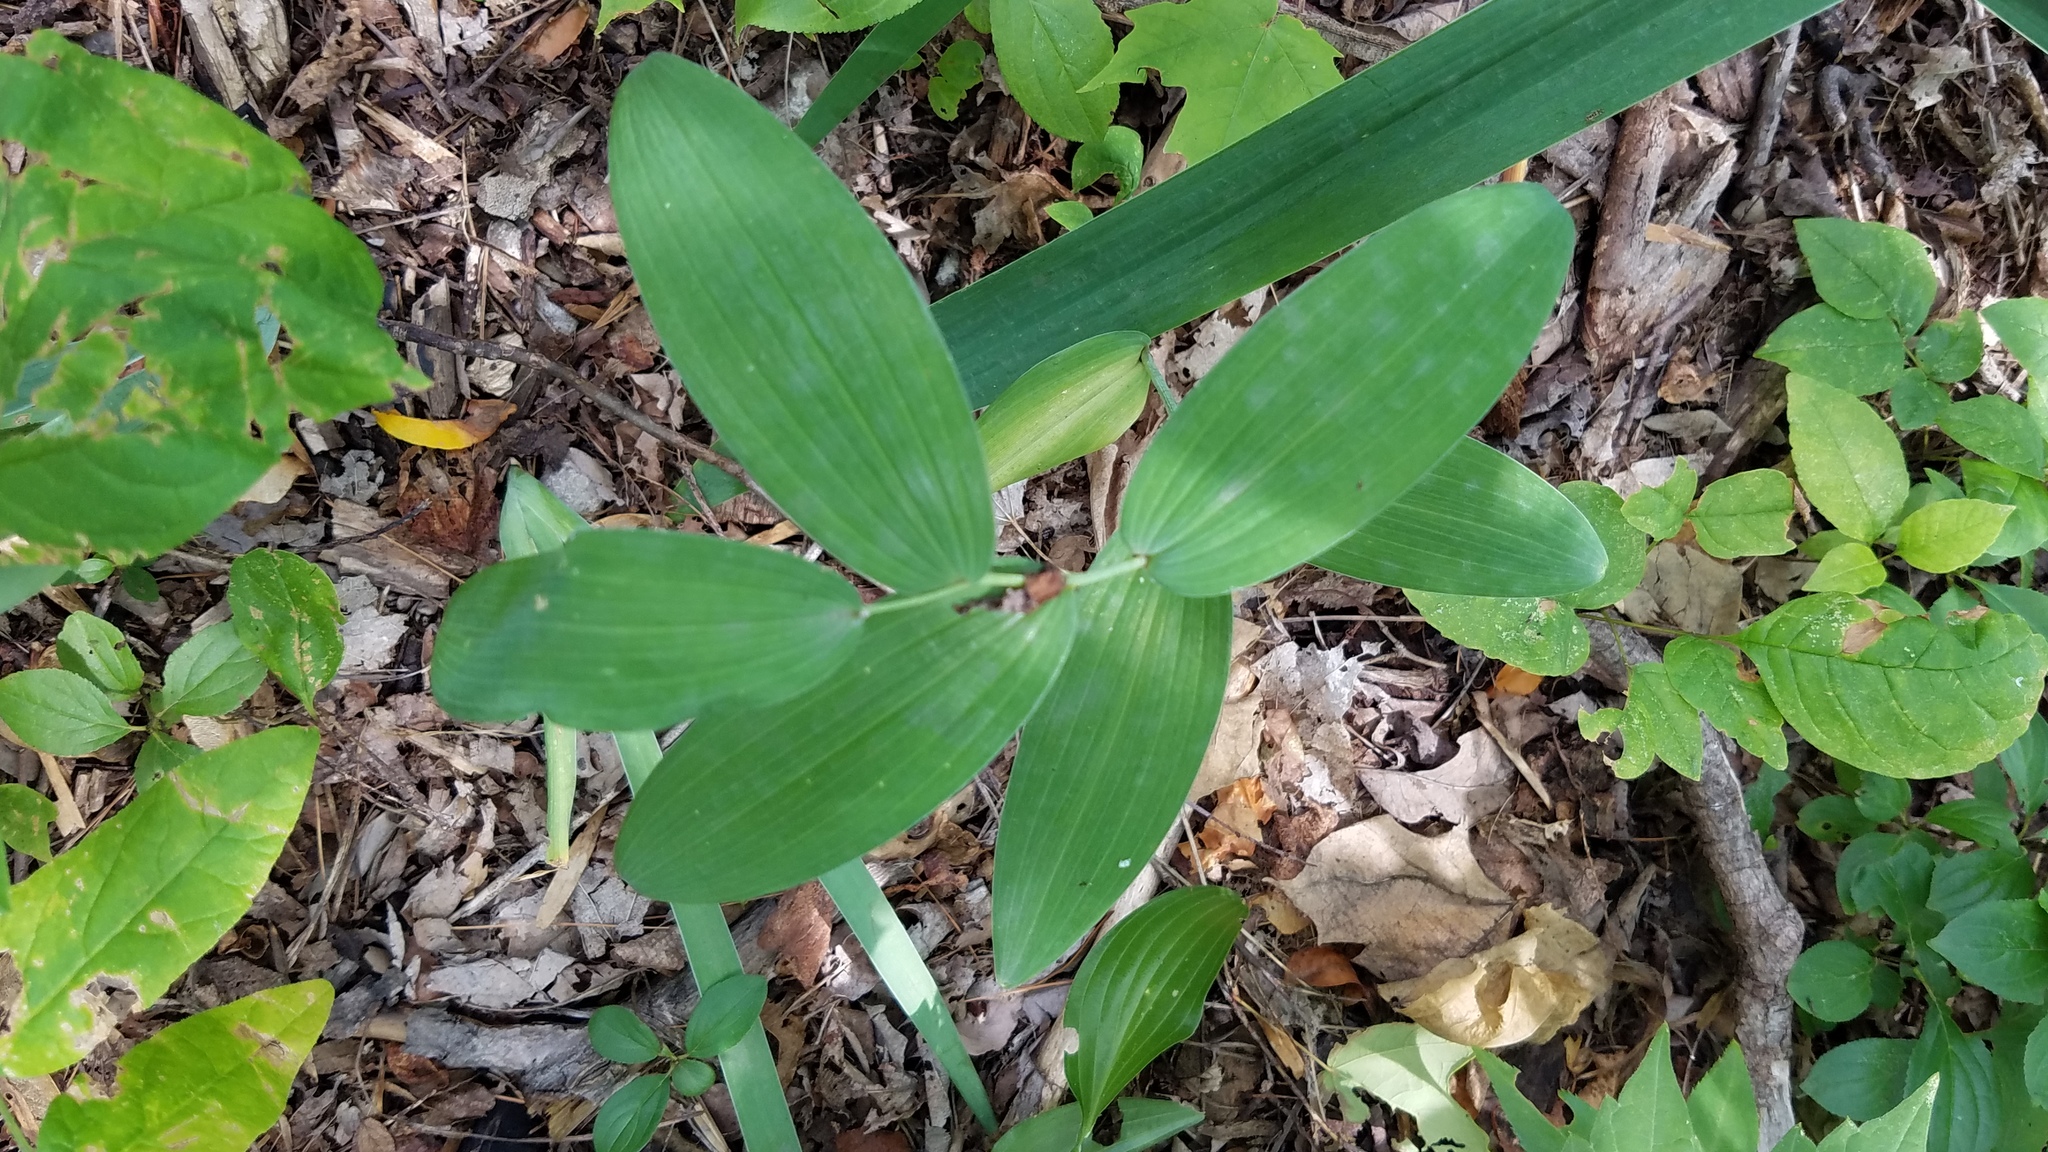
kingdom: Plantae
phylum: Tracheophyta
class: Liliopsida
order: Asparagales
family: Asparagaceae
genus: Polygonatum
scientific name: Polygonatum biflorum
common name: American solomon's-seal
